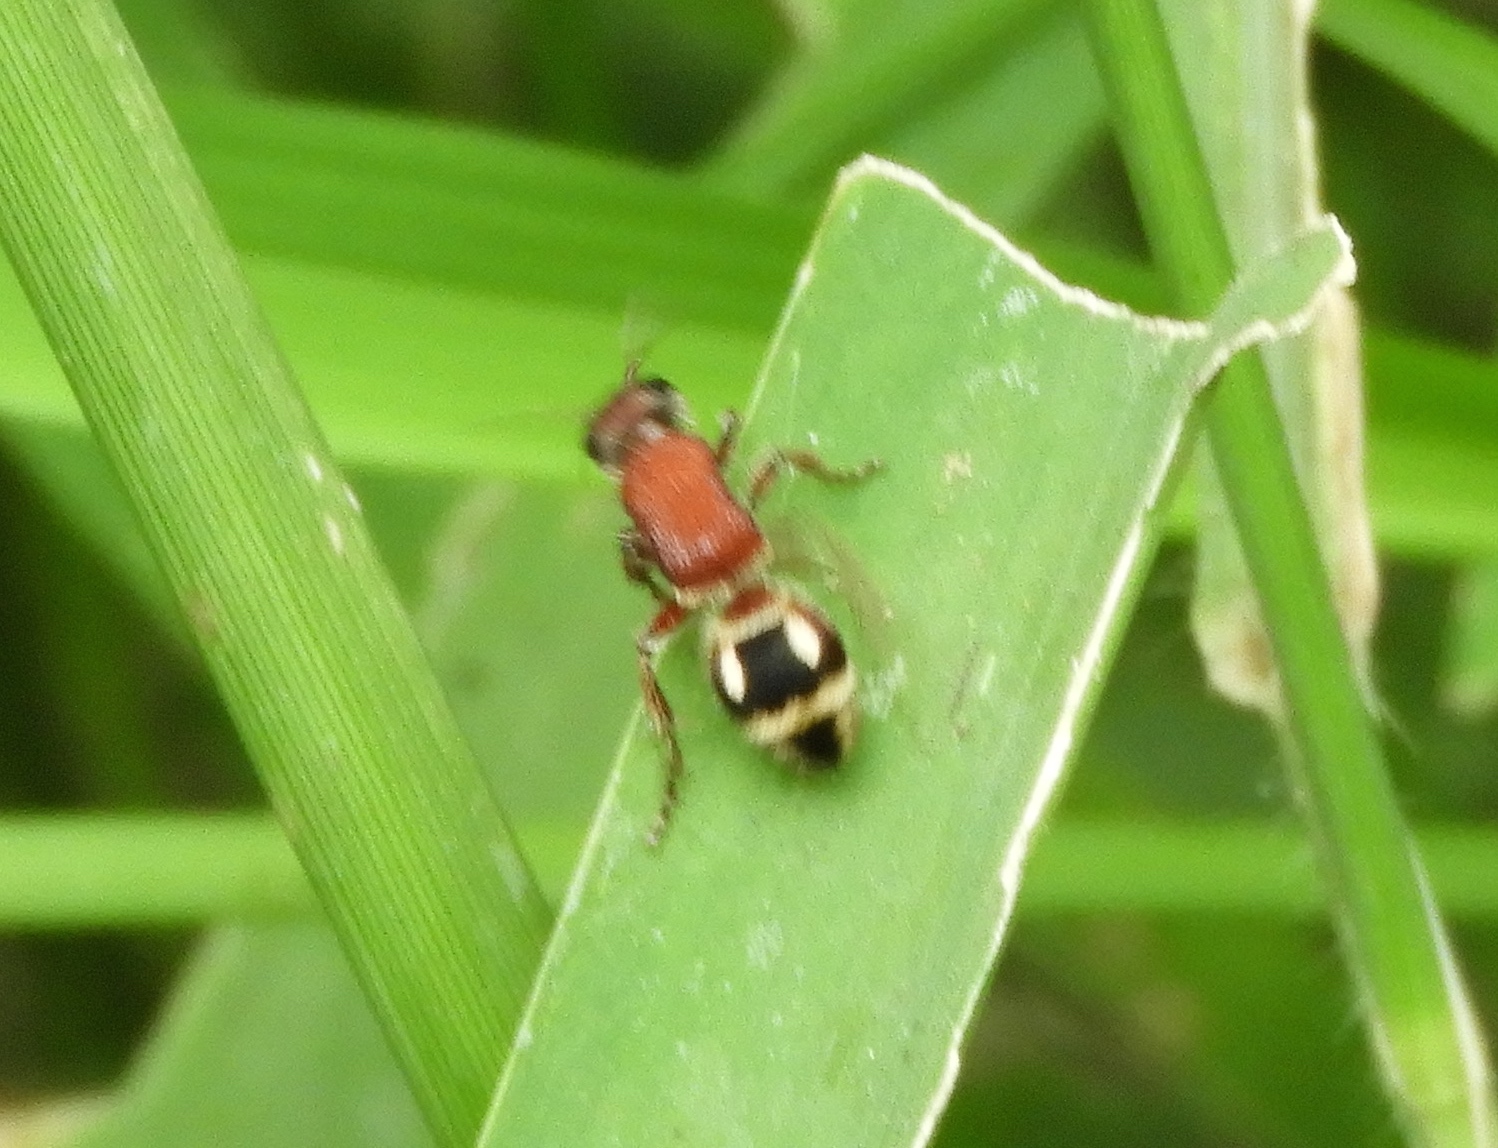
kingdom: Animalia
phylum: Arthropoda
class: Insecta
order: Hymenoptera
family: Mutillidae
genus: Timulla
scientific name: Timulla
